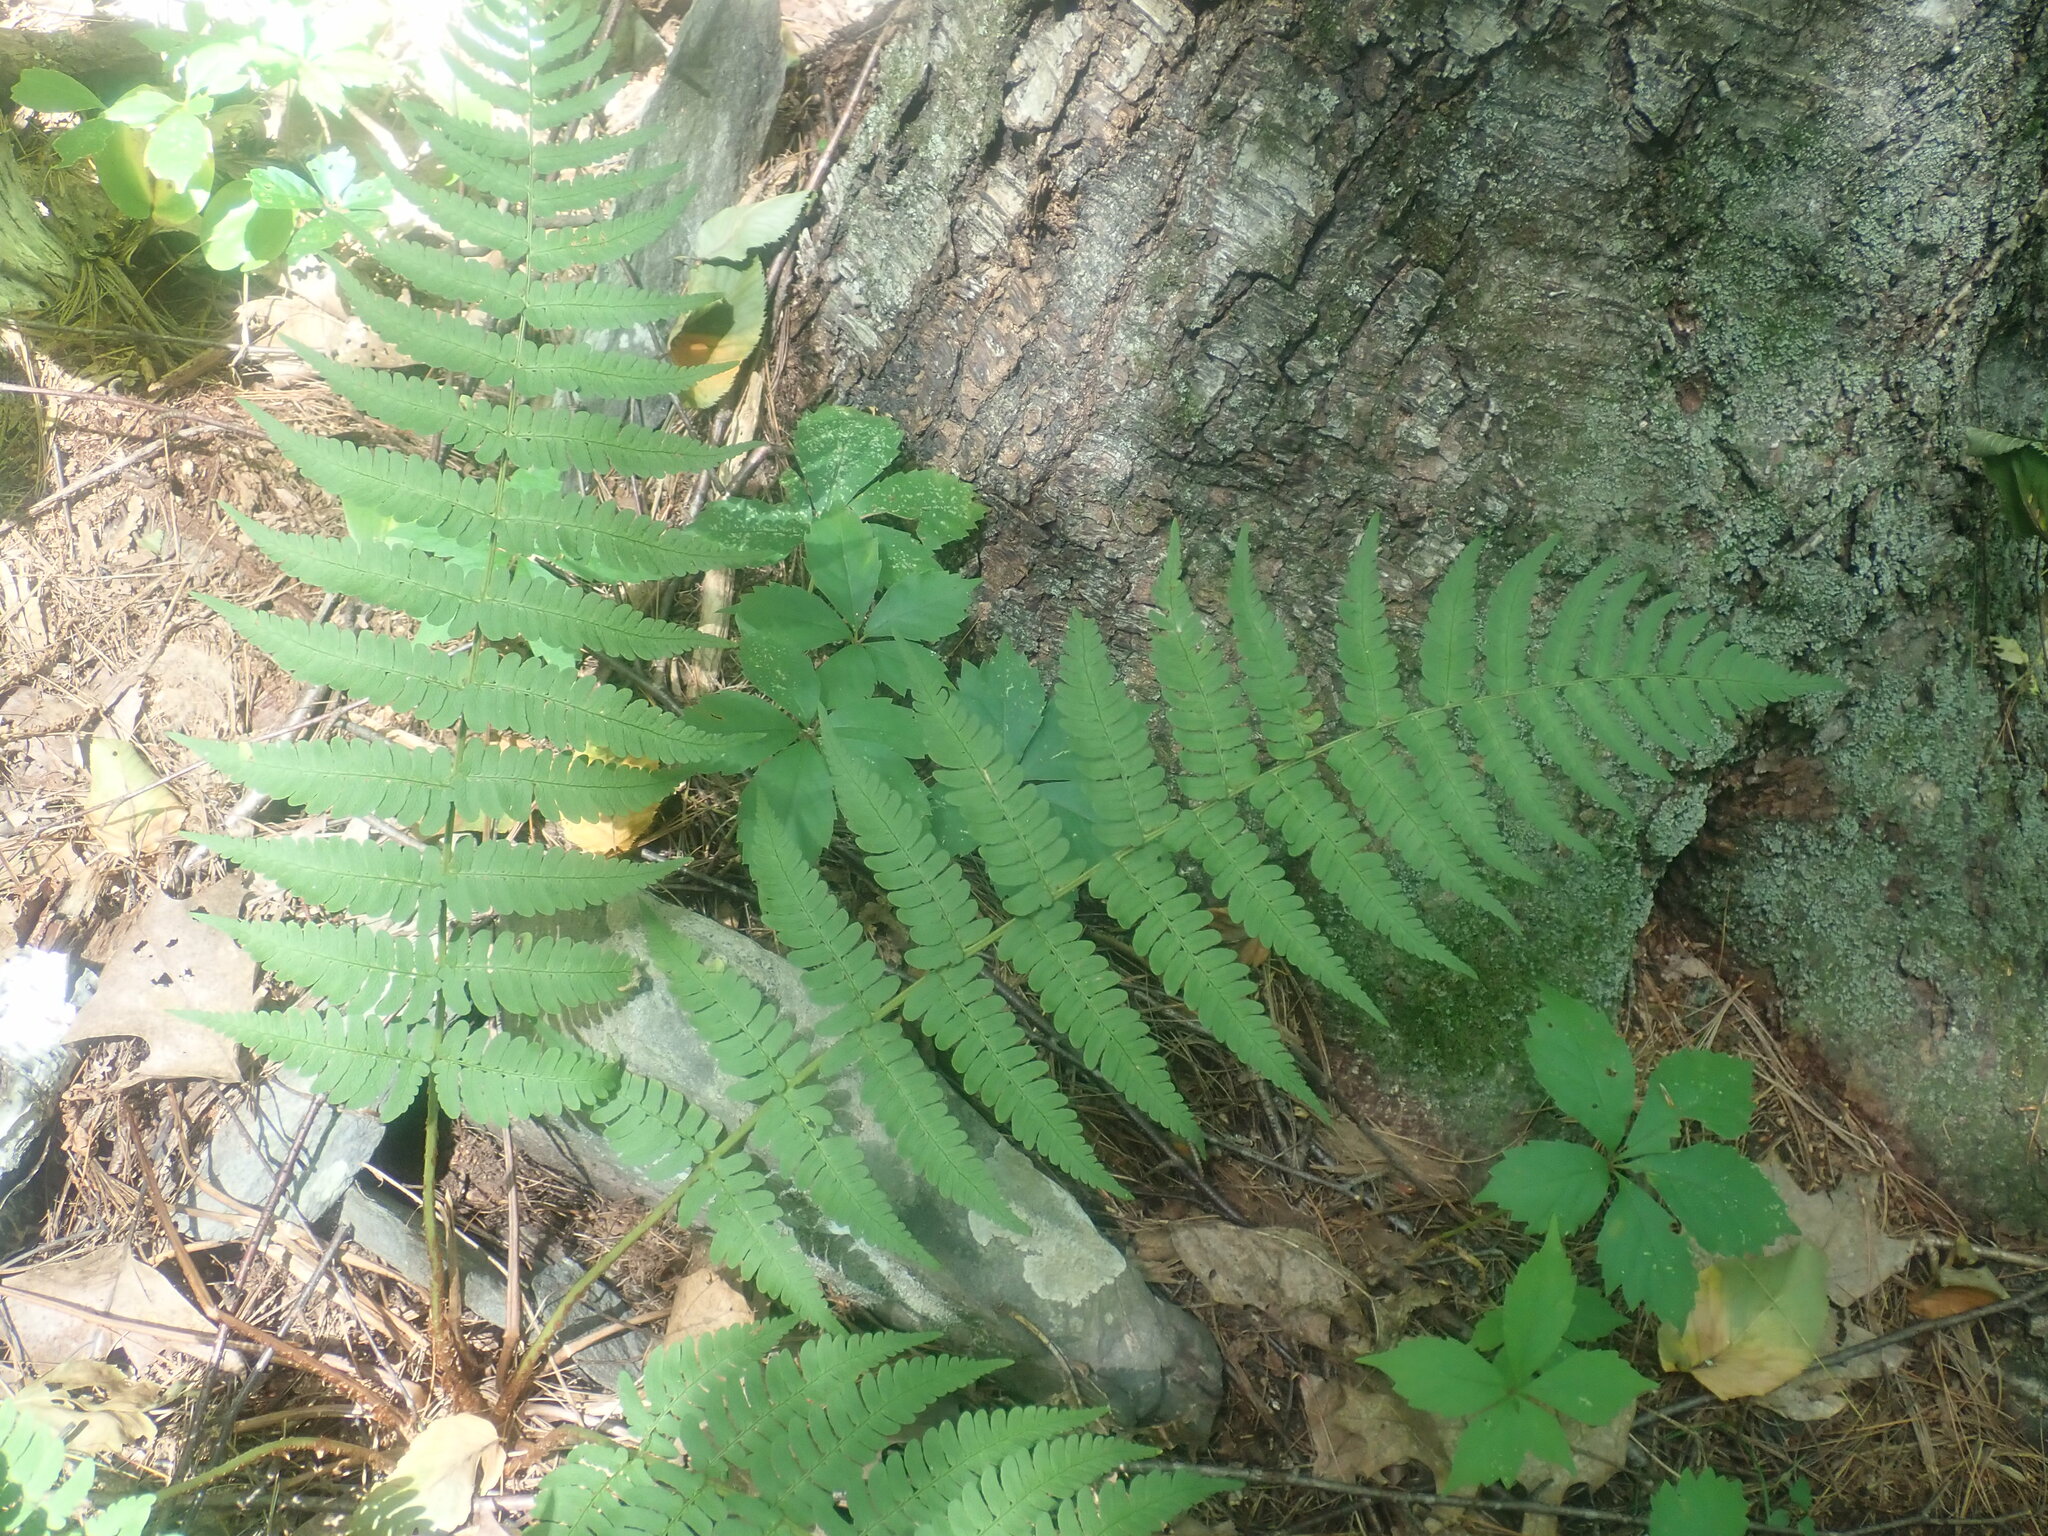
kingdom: Plantae
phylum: Tracheophyta
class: Polypodiopsida
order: Polypodiales
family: Dryopteridaceae
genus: Dryopteris
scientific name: Dryopteris marginalis
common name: Marginal wood fern
